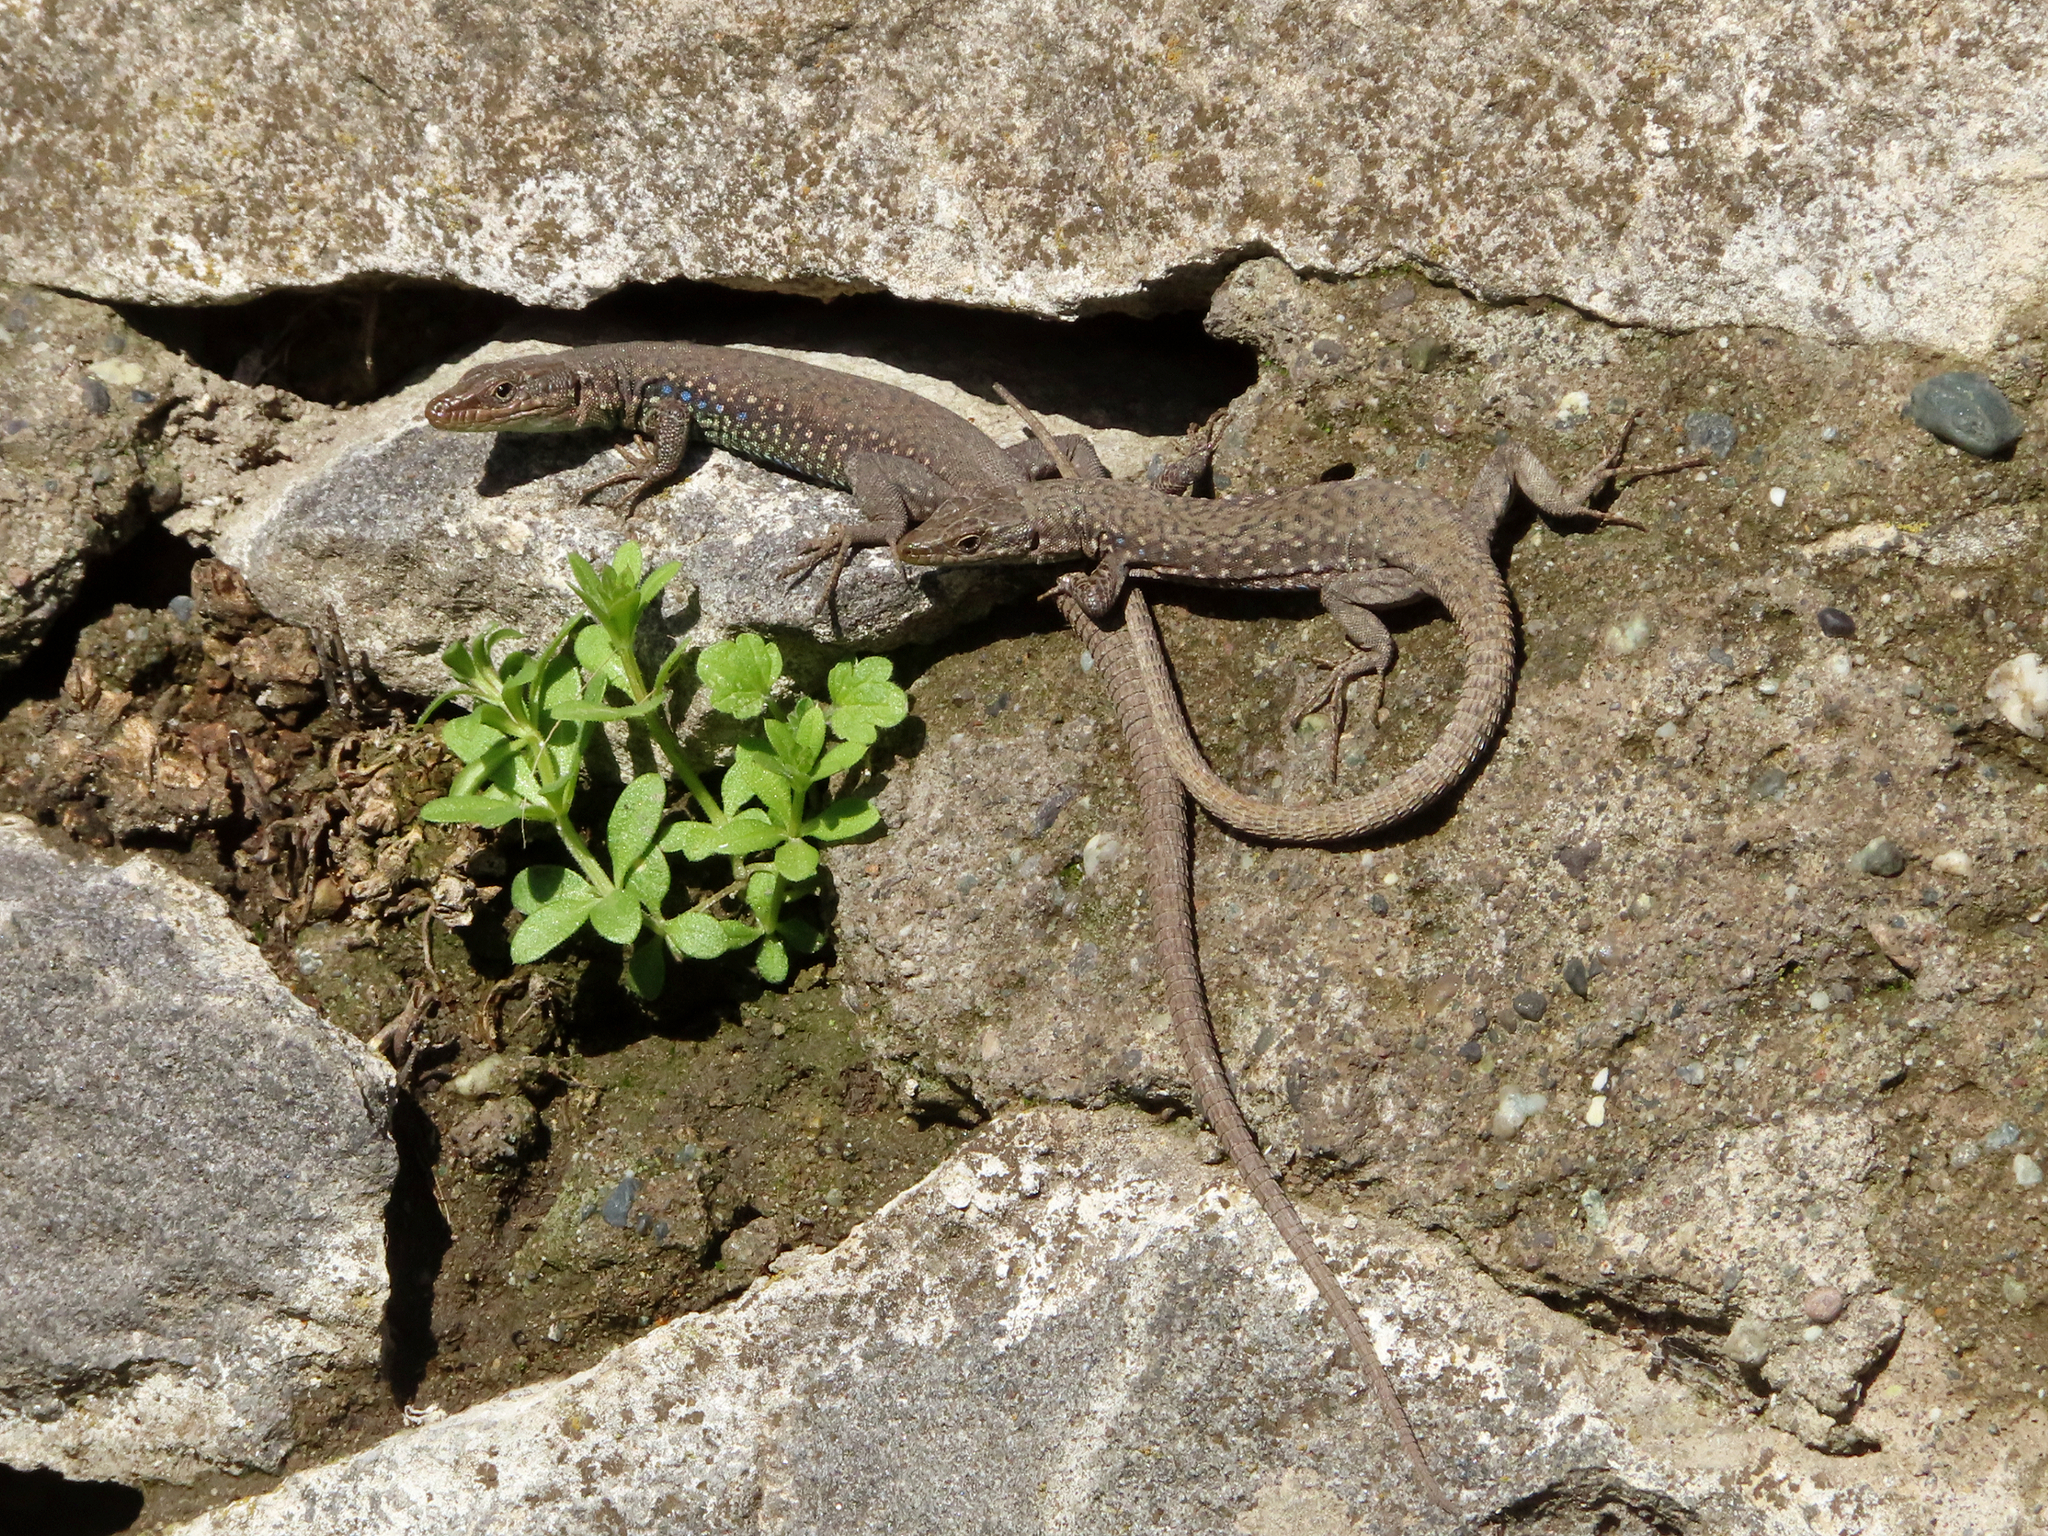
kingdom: Animalia
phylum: Chordata
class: Squamata
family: Lacertidae
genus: Darevskia
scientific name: Darevskia
